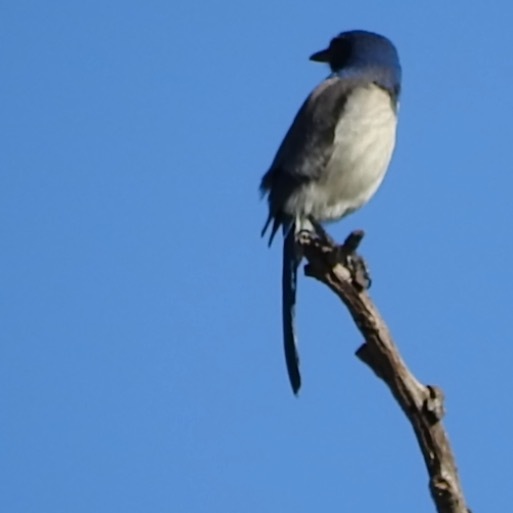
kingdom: Animalia
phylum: Chordata
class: Aves
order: Passeriformes
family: Corvidae
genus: Aphelocoma
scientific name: Aphelocoma californica
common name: California scrub-jay
